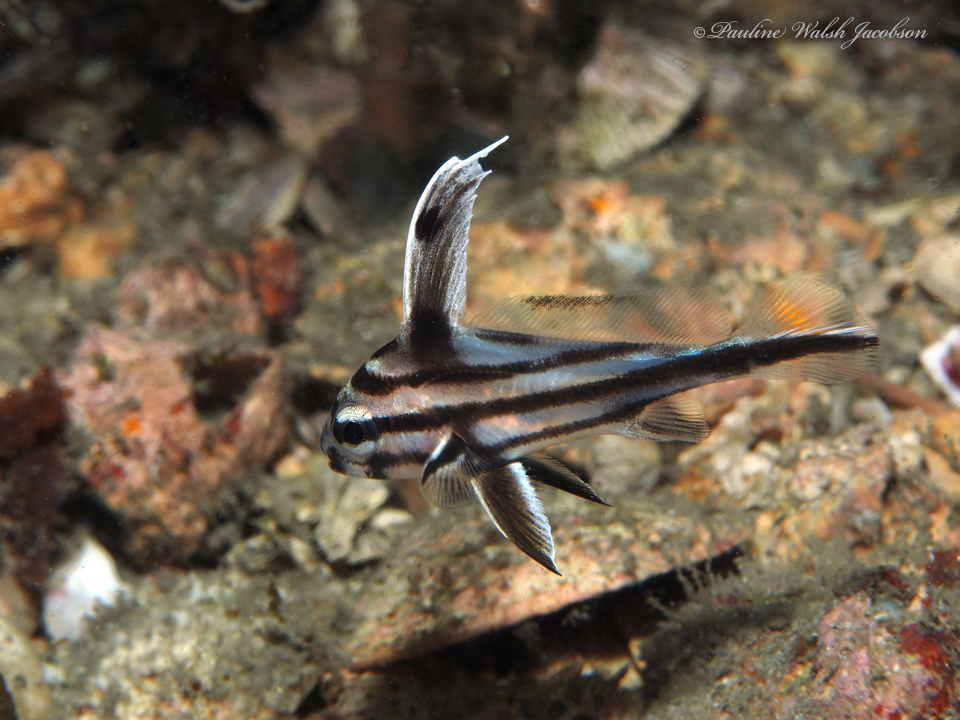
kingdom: Animalia
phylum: Chordata
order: Perciformes
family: Sciaenidae
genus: Pareques
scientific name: Pareques acuminatus
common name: High-hat
